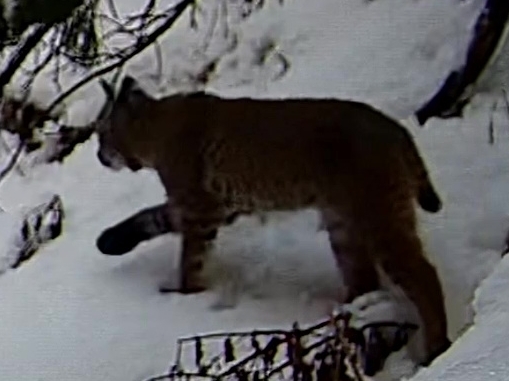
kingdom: Animalia
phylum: Chordata
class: Mammalia
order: Carnivora
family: Felidae
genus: Lynx
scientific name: Lynx rufus
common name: Bobcat
